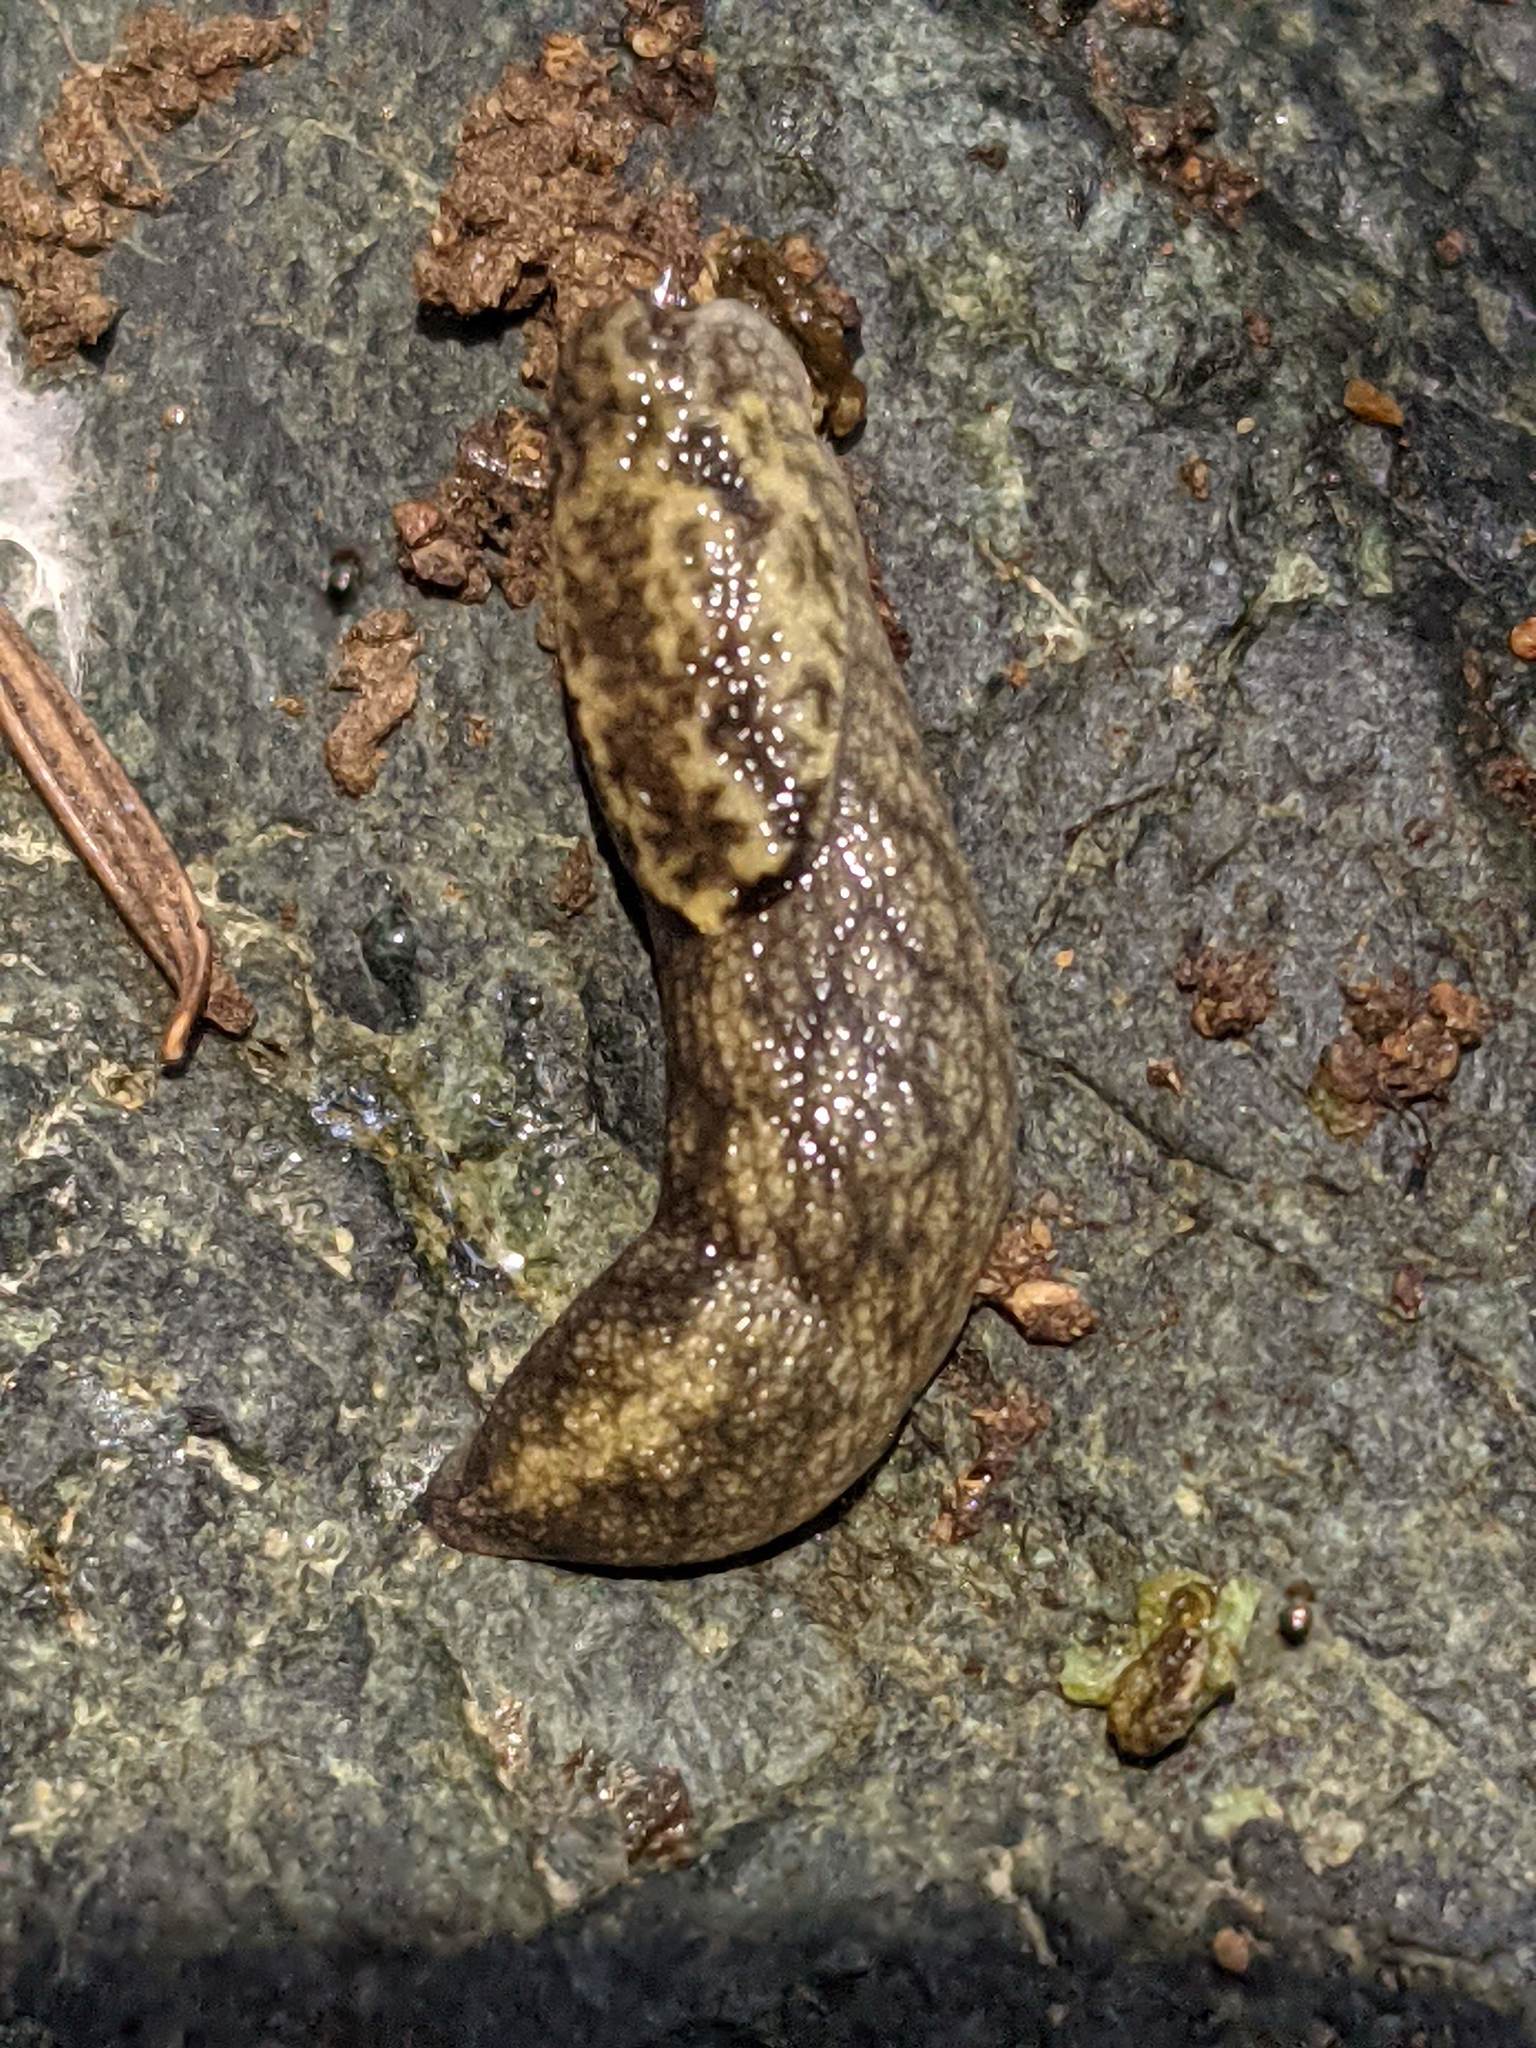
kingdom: Animalia
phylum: Mollusca
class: Gastropoda
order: Stylommatophora
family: Ariolimacidae
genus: Prophysaon
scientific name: Prophysaon andersonii
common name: Reticulate taildropper
